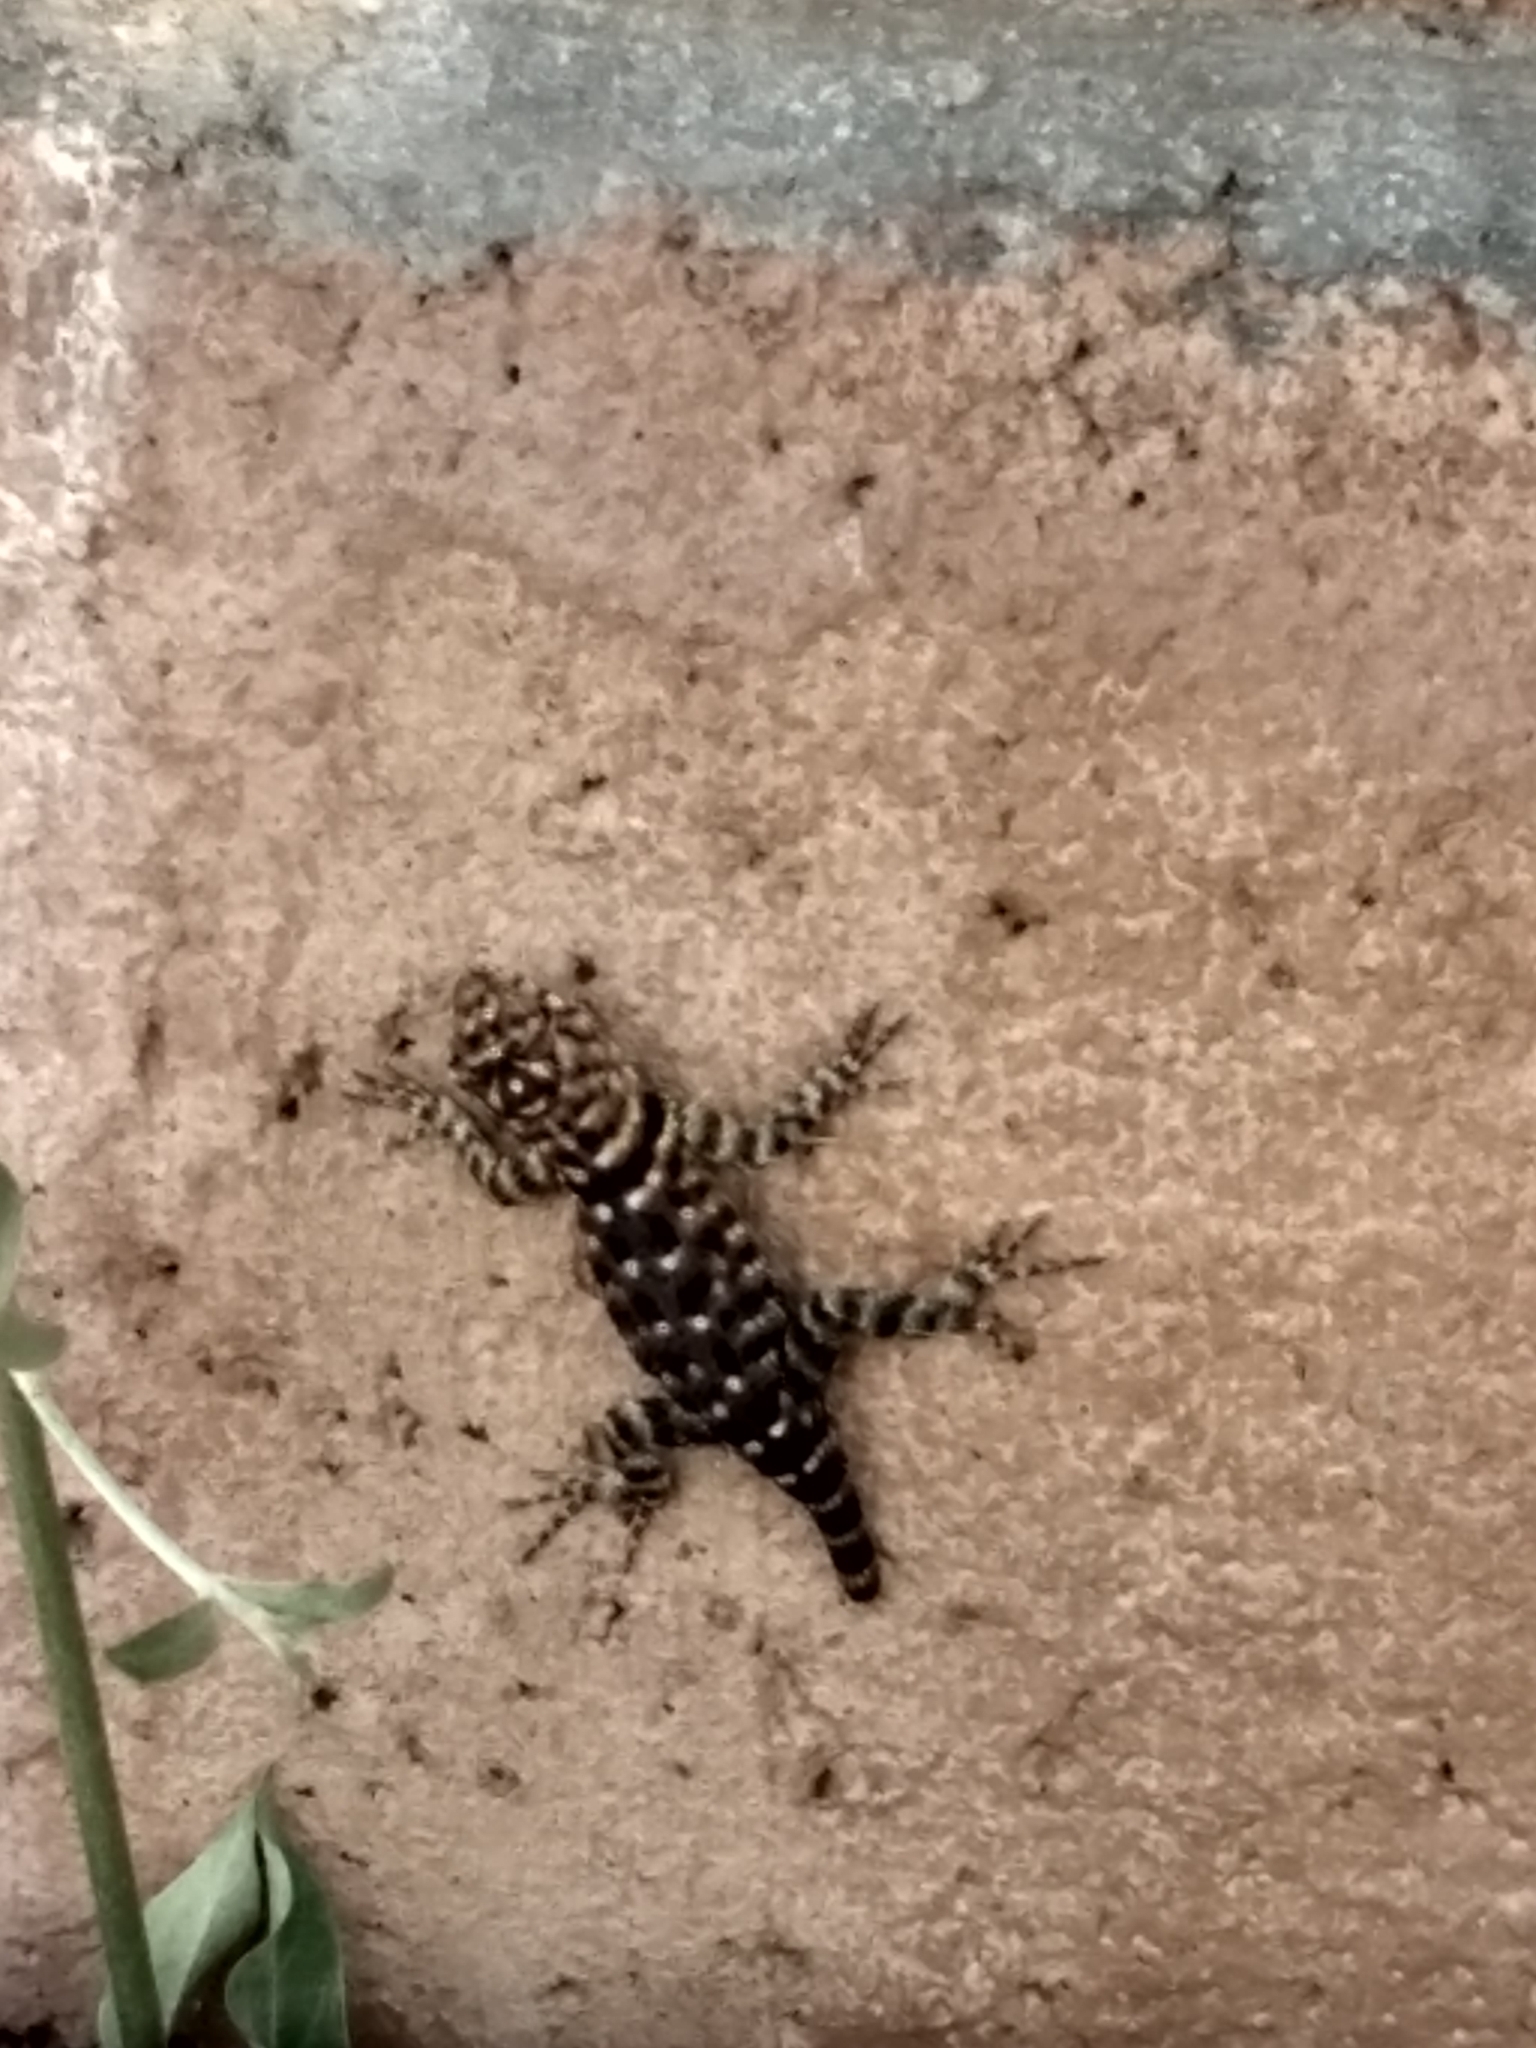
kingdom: Animalia
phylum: Chordata
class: Squamata
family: Phrynosomatidae
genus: Sceloporus
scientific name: Sceloporus orcutti
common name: Granite spiny lizard
